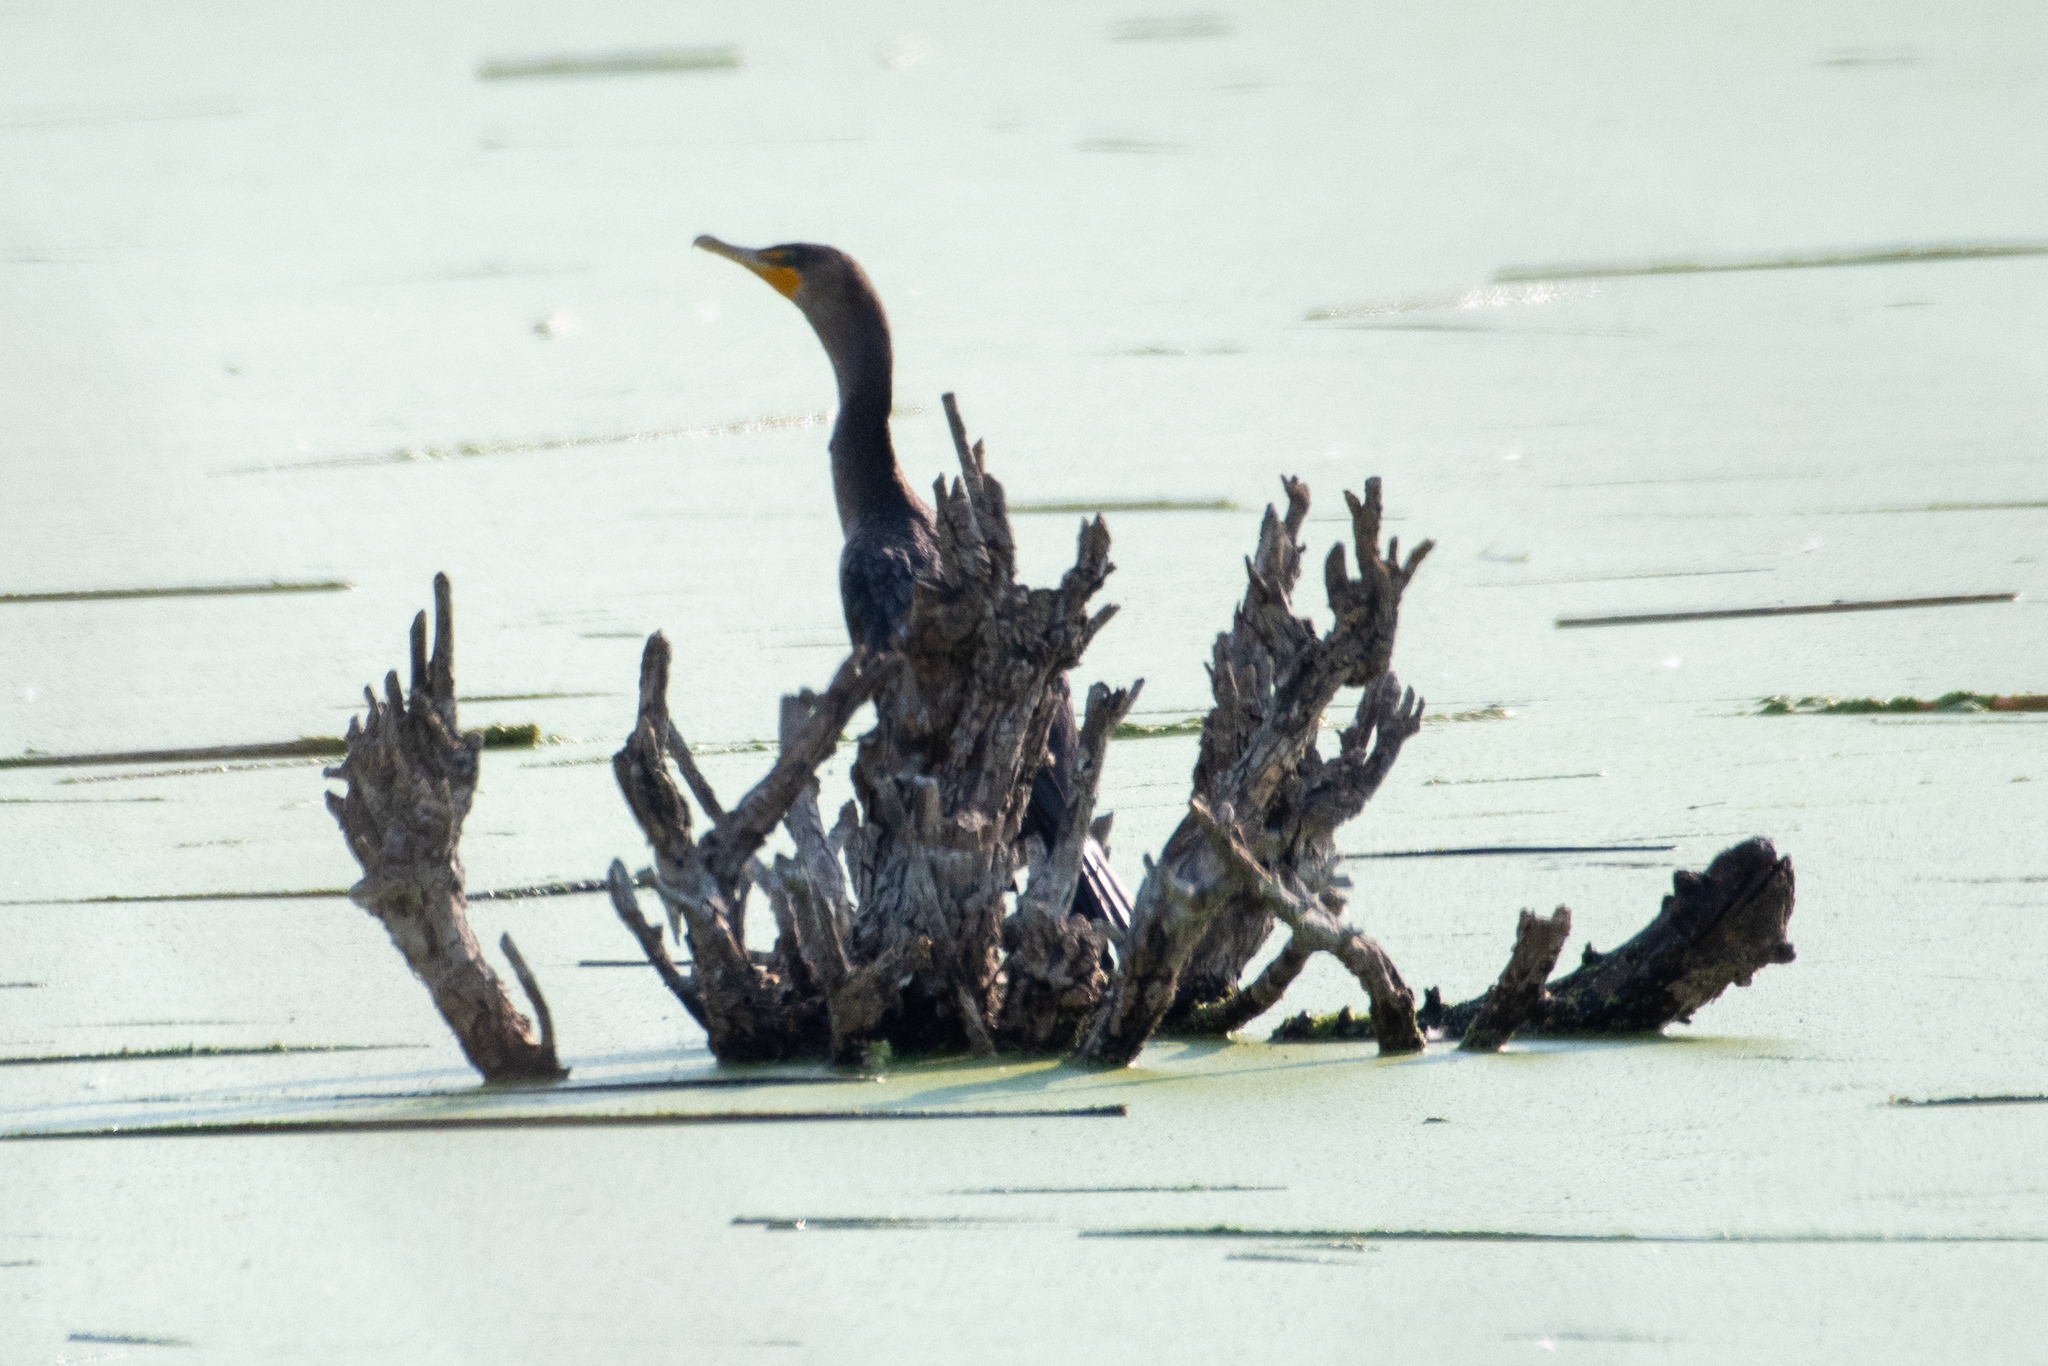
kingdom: Animalia
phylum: Chordata
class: Aves
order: Suliformes
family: Phalacrocoracidae
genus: Phalacrocorax
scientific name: Phalacrocorax auritus
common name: Double-crested cormorant
